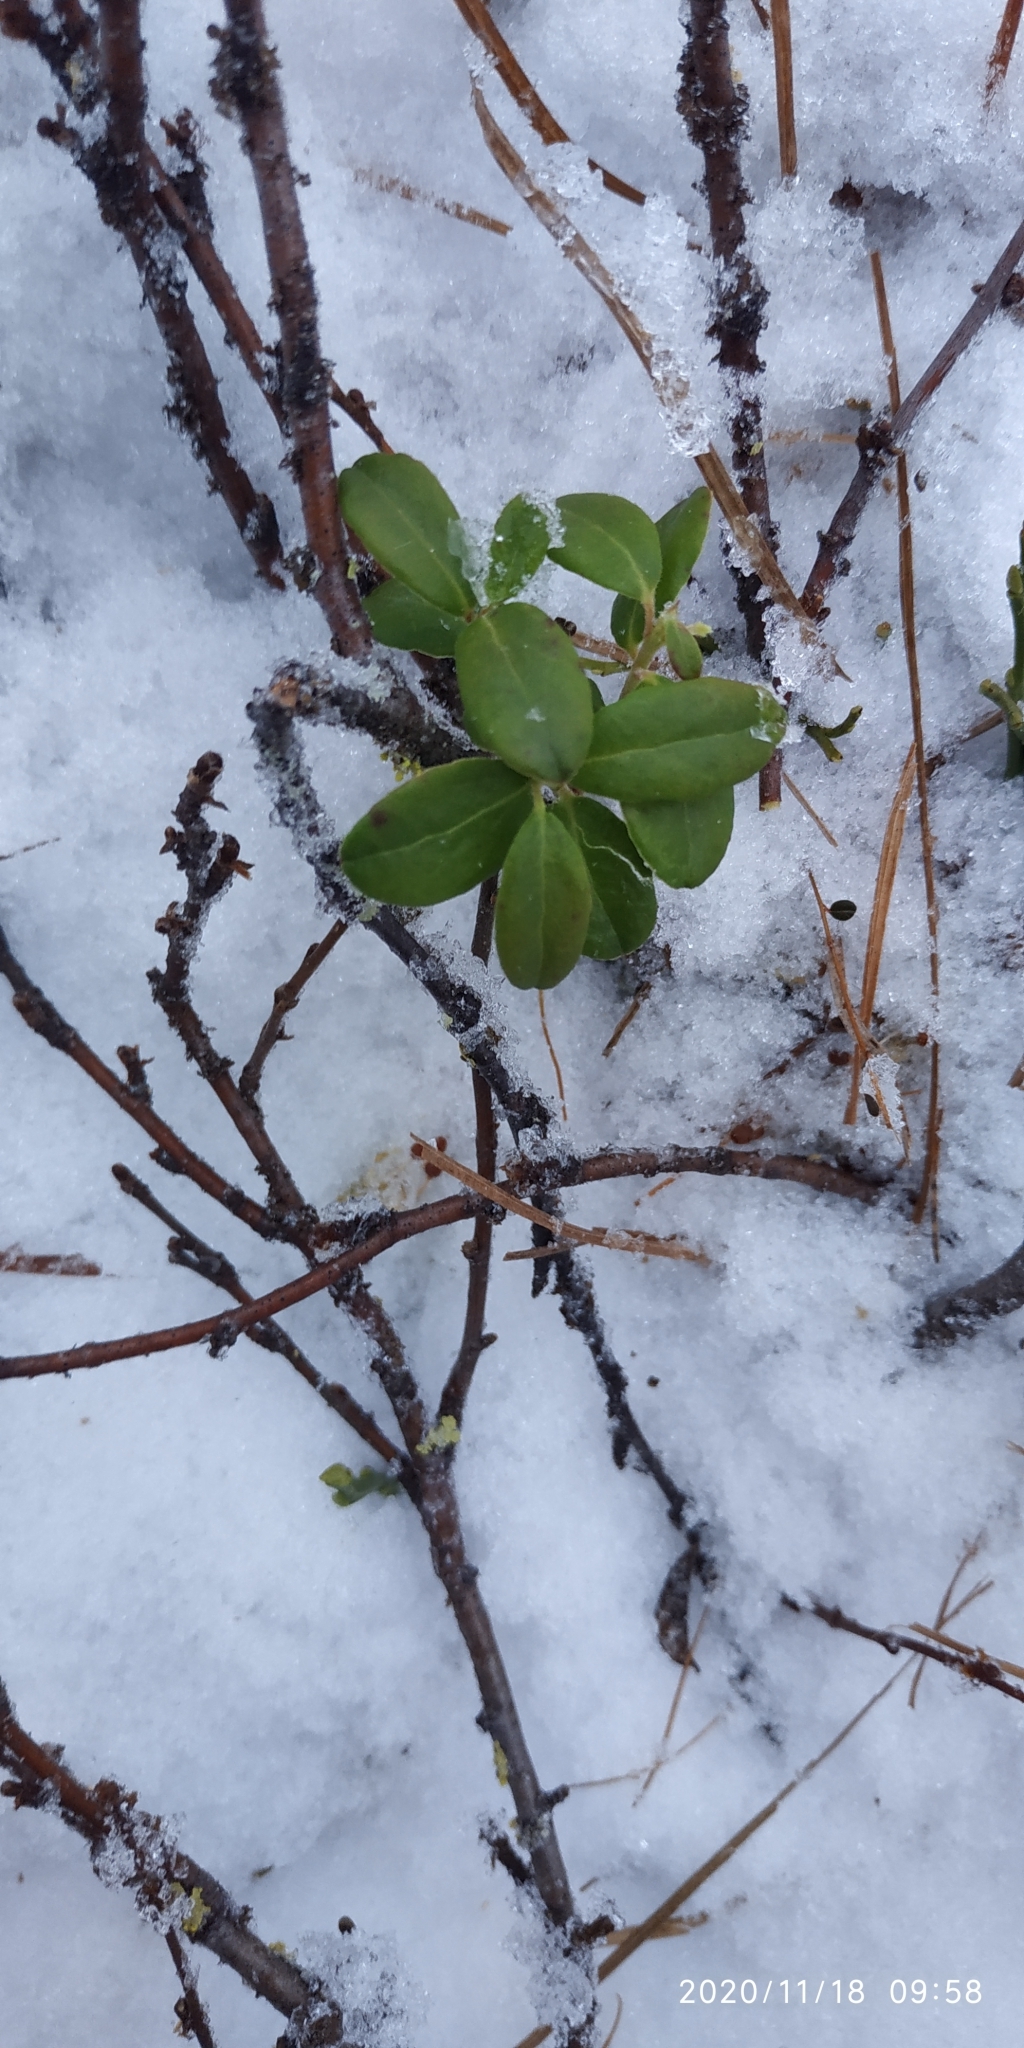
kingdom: Plantae
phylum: Tracheophyta
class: Magnoliopsida
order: Ericales
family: Ericaceae
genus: Vaccinium
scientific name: Vaccinium vitis-idaea
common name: Cowberry
